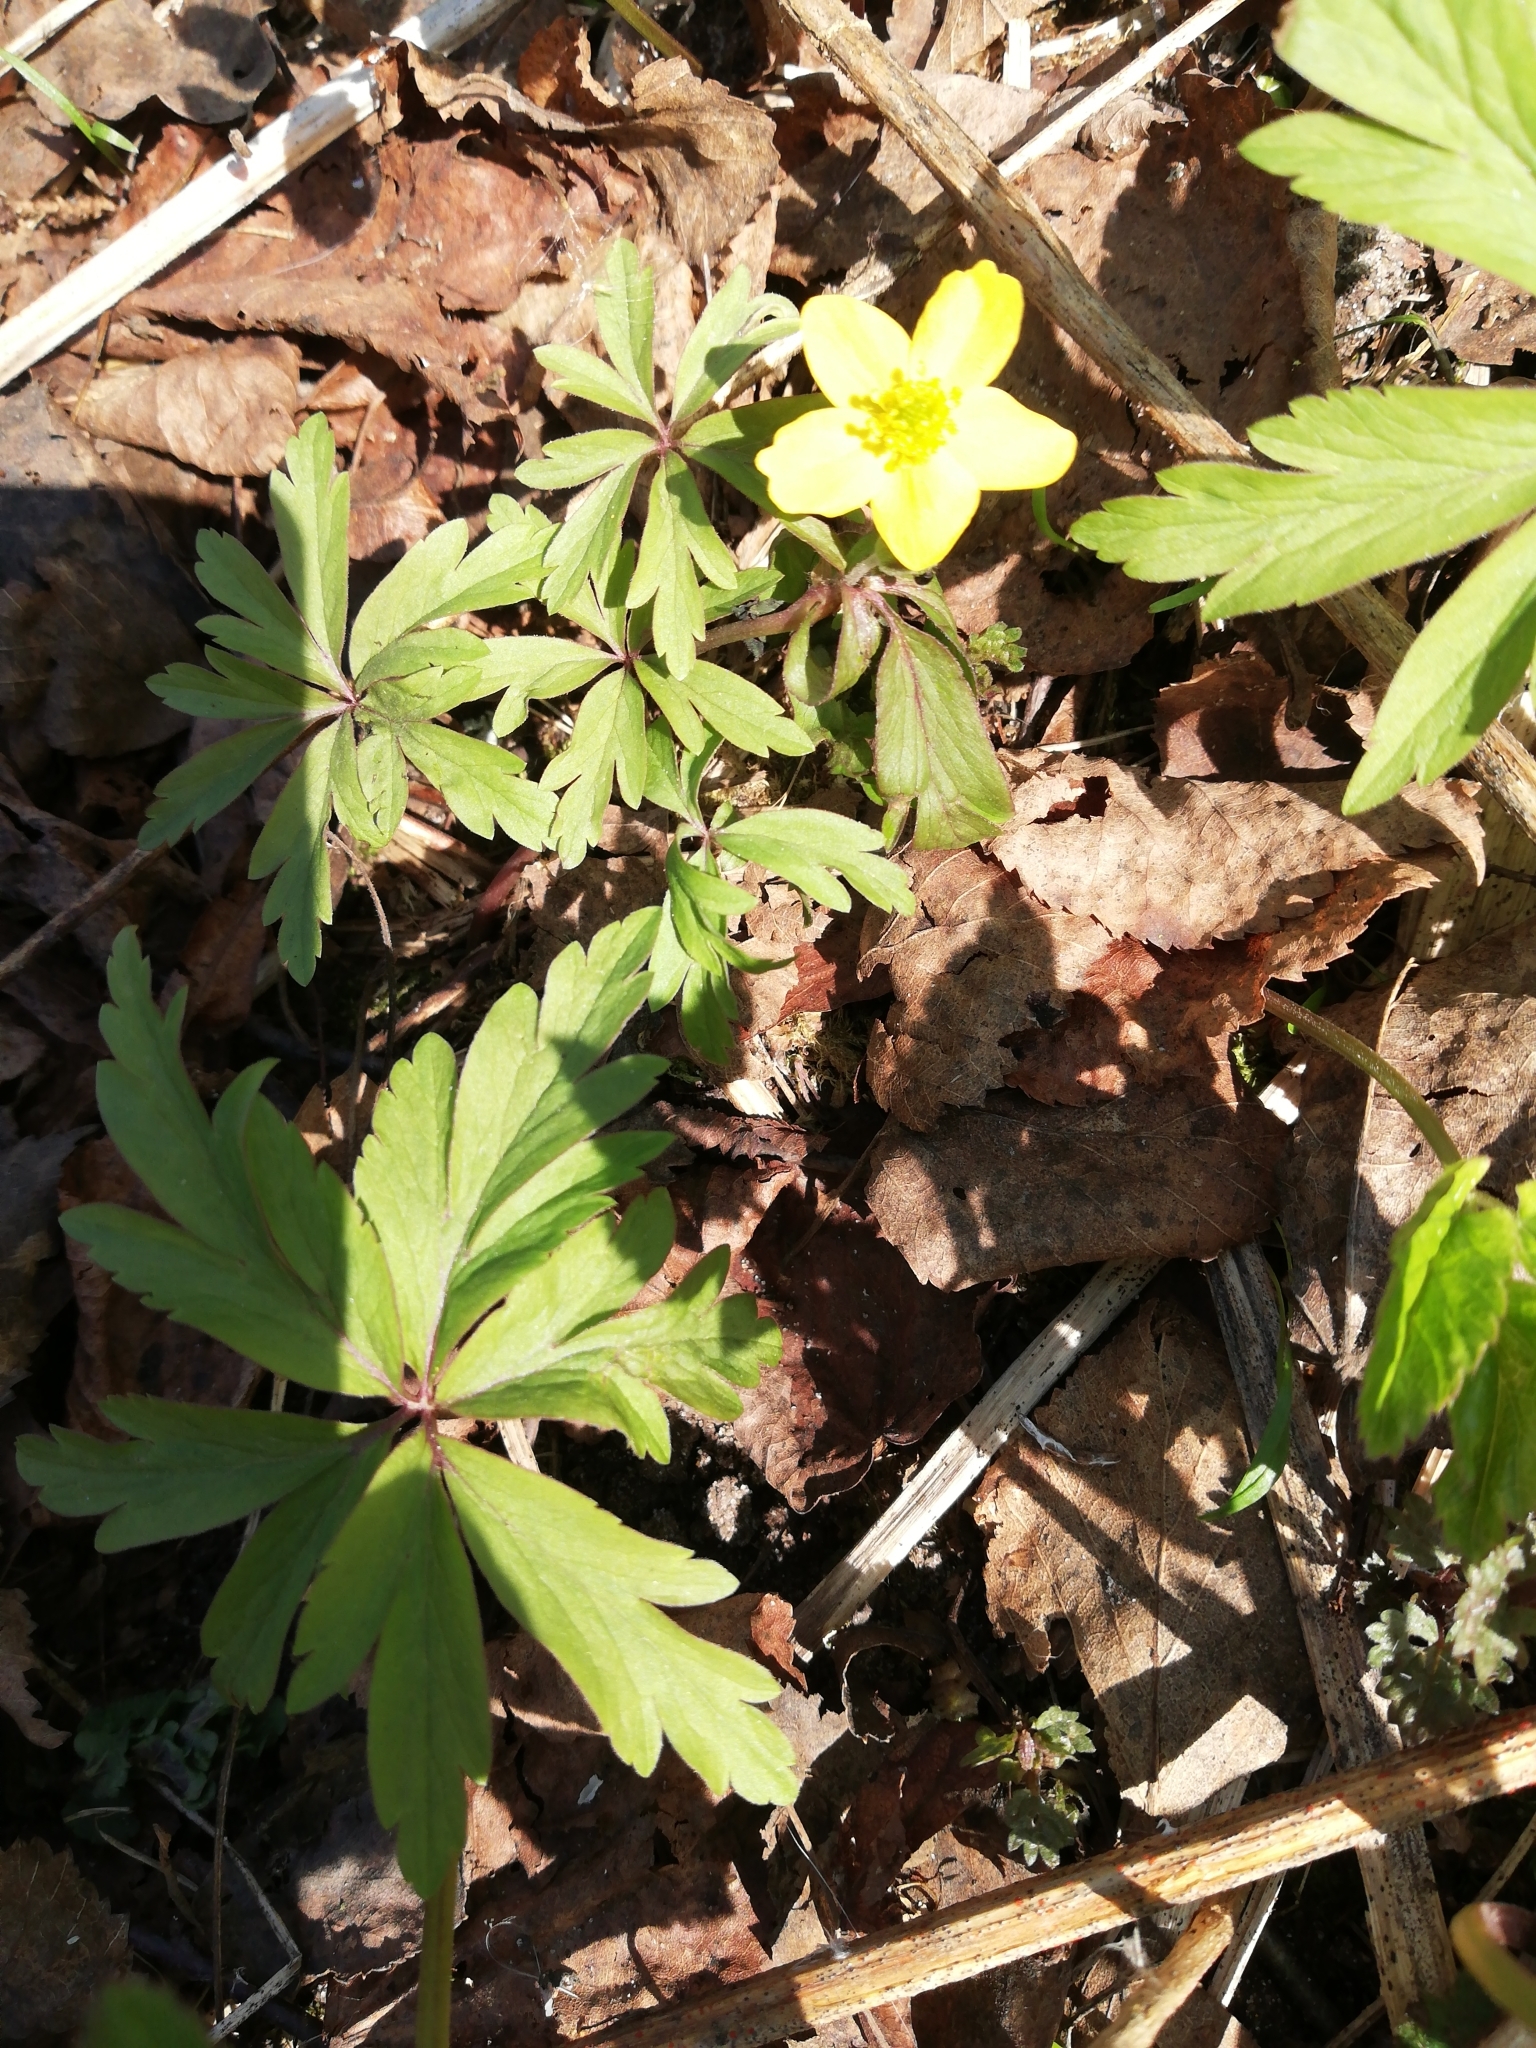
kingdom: Plantae
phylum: Tracheophyta
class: Magnoliopsida
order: Ranunculales
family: Ranunculaceae
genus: Anemone
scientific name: Anemone ranunculoides
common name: Yellow anemone
